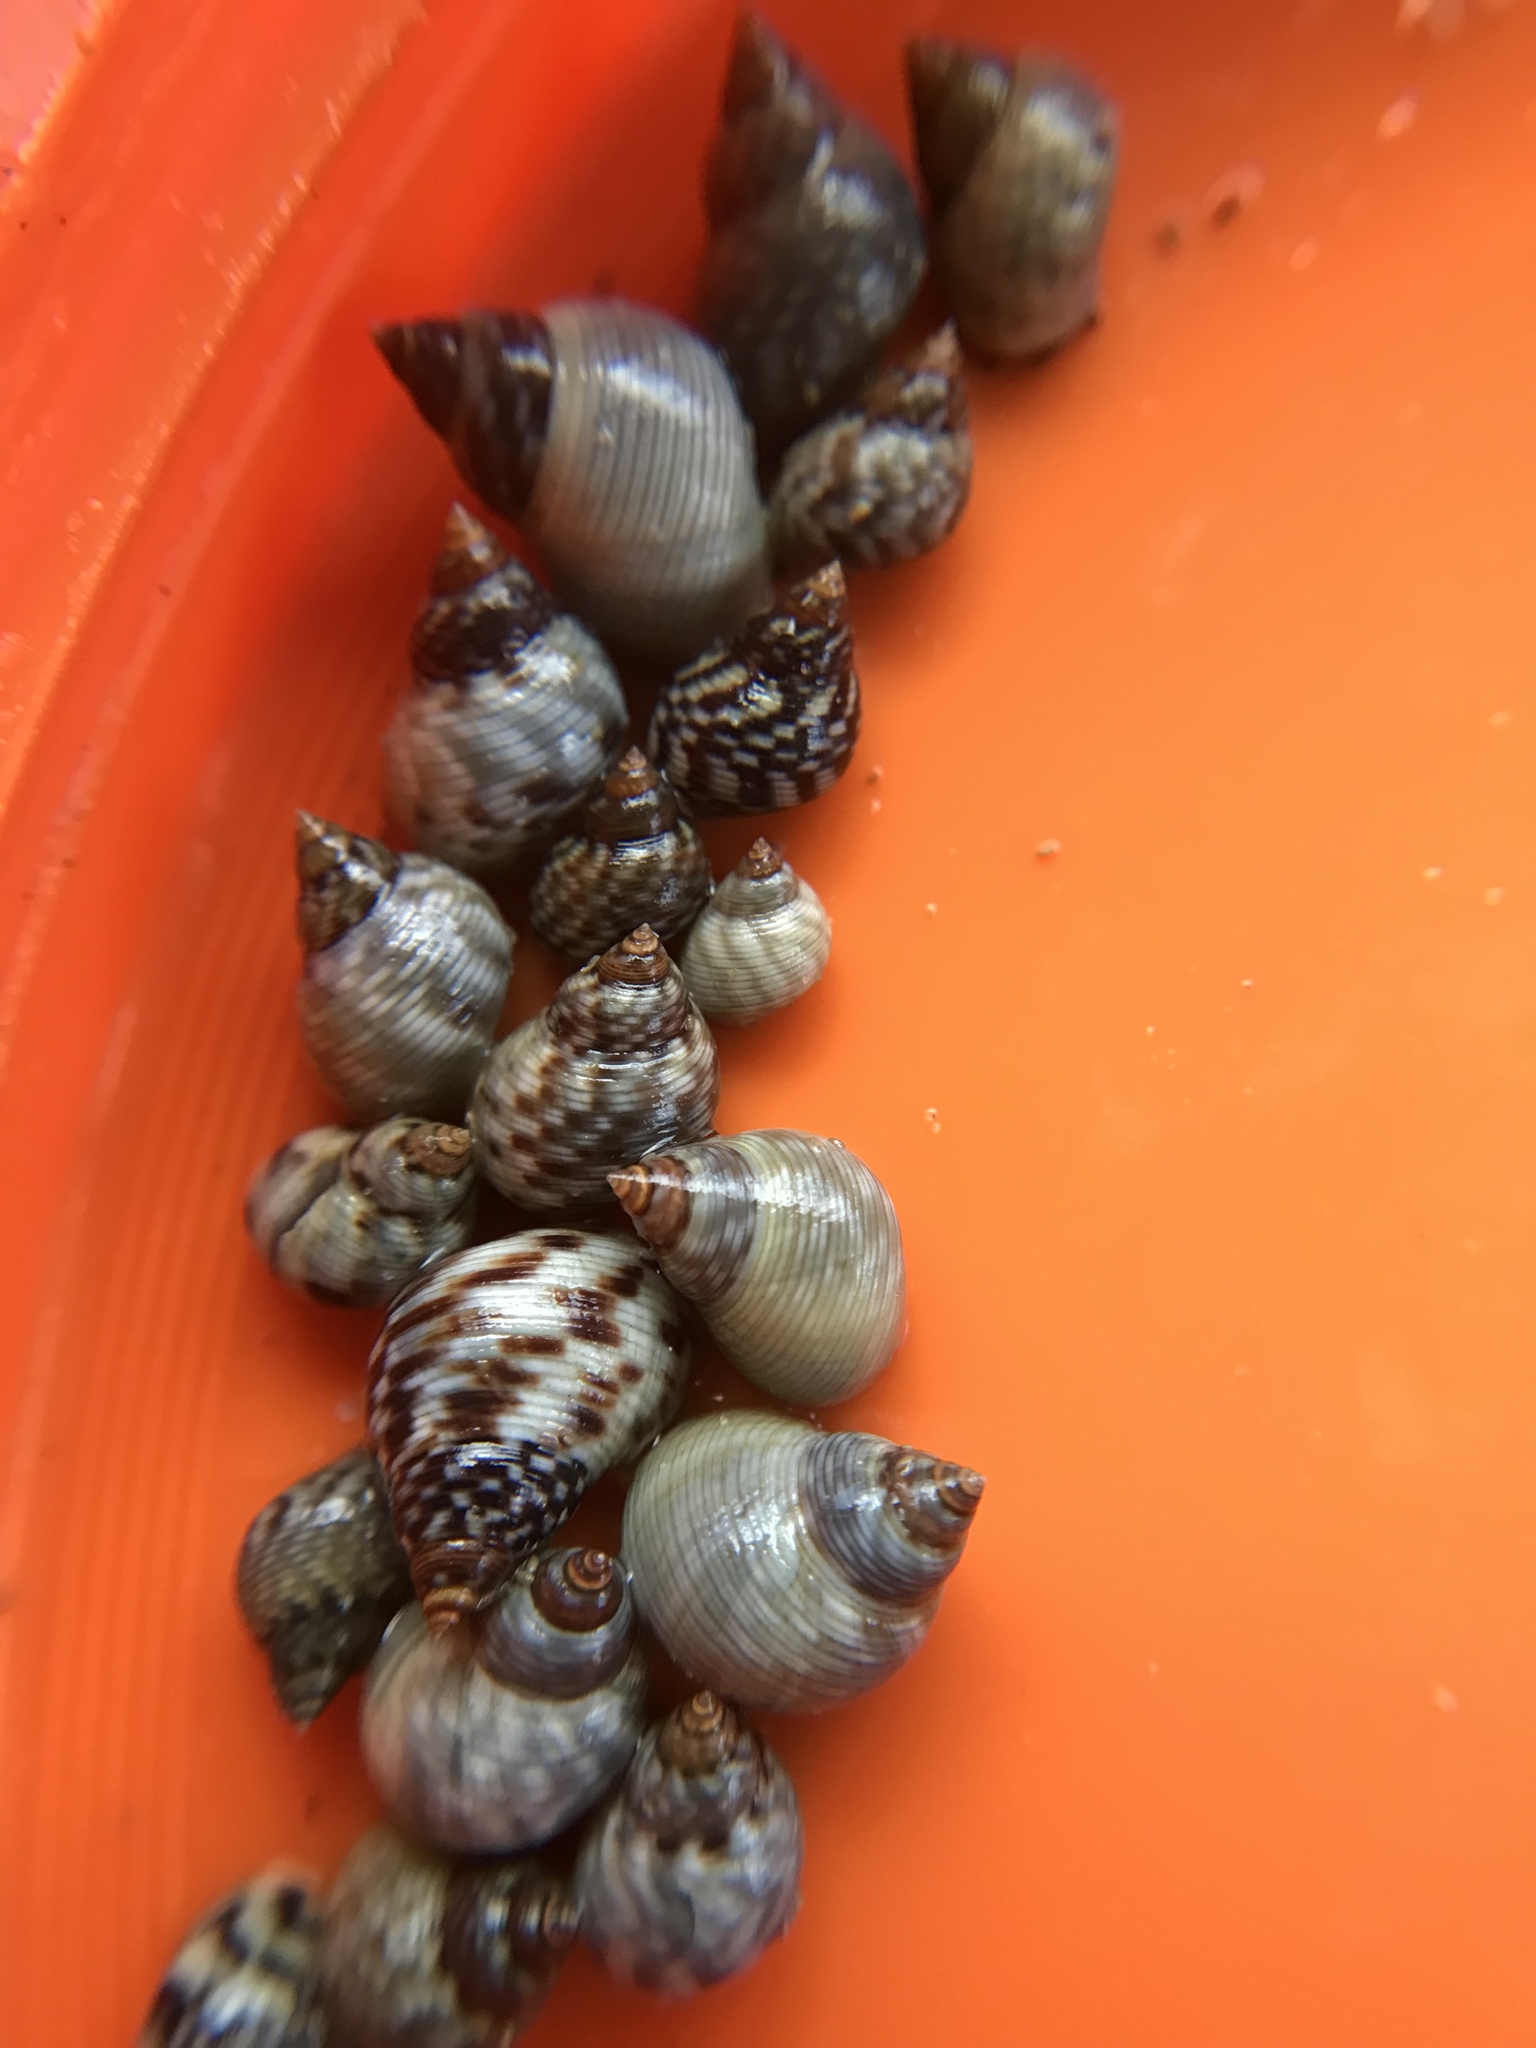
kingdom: Animalia
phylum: Mollusca
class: Gastropoda
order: Littorinimorpha
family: Littorinidae
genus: Littoraria
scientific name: Littoraria nebulosa
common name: Cloudy periwinkle
